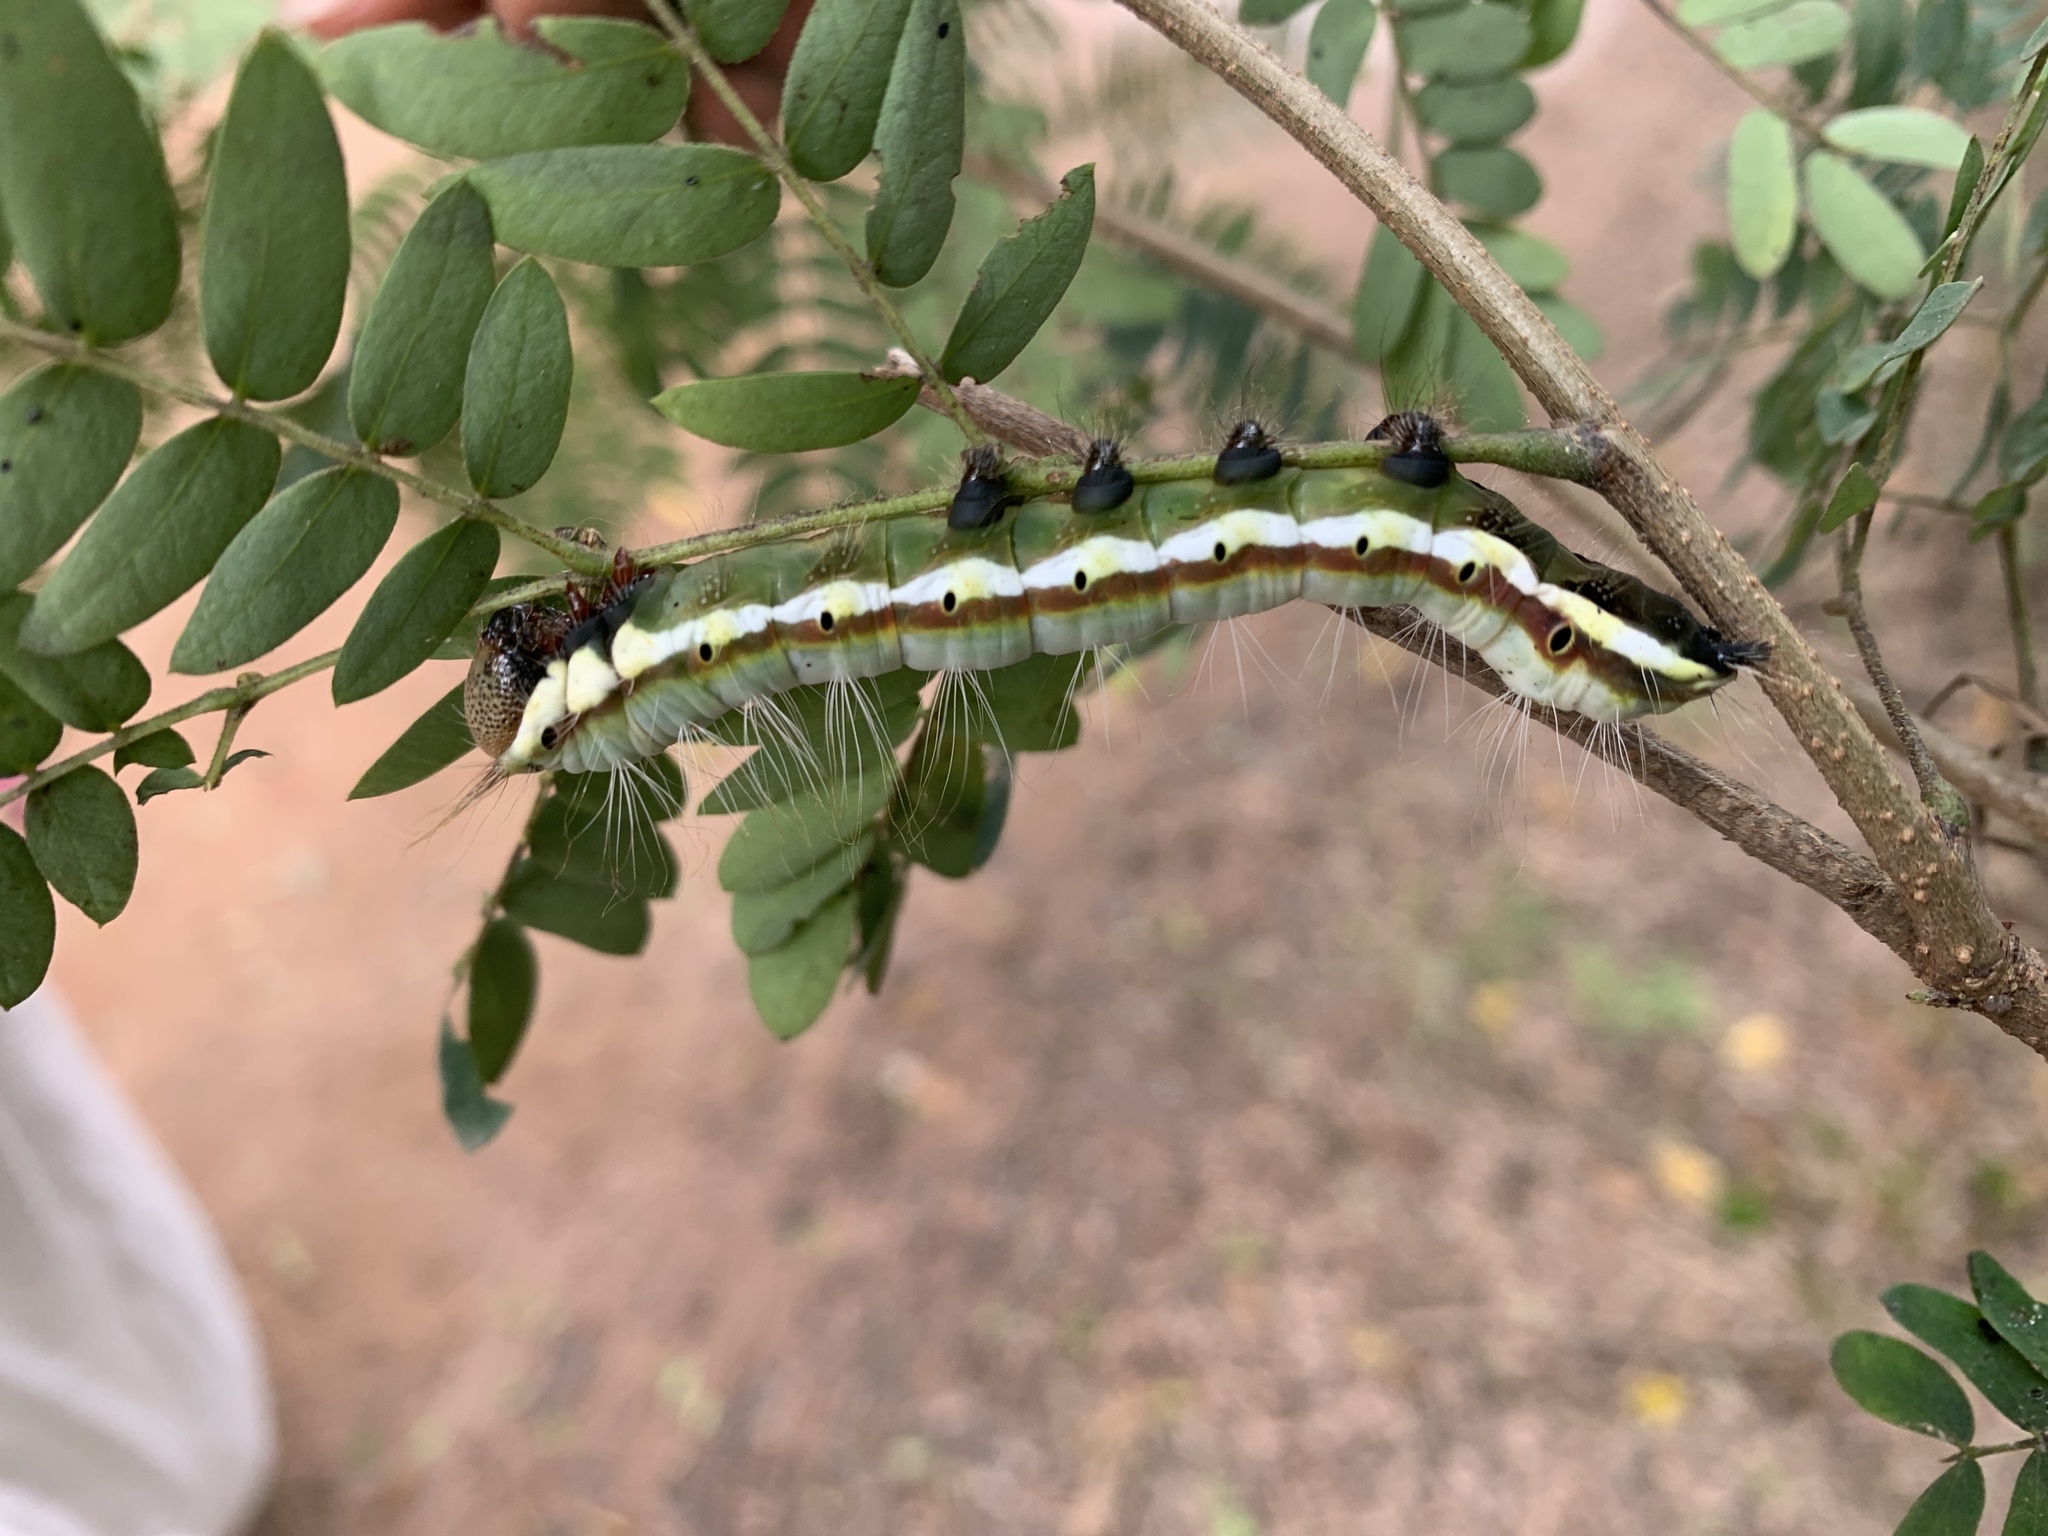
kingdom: Animalia
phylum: Arthropoda
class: Insecta
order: Lepidoptera
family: Notodontidae
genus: Phalera
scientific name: Phalera grotei
